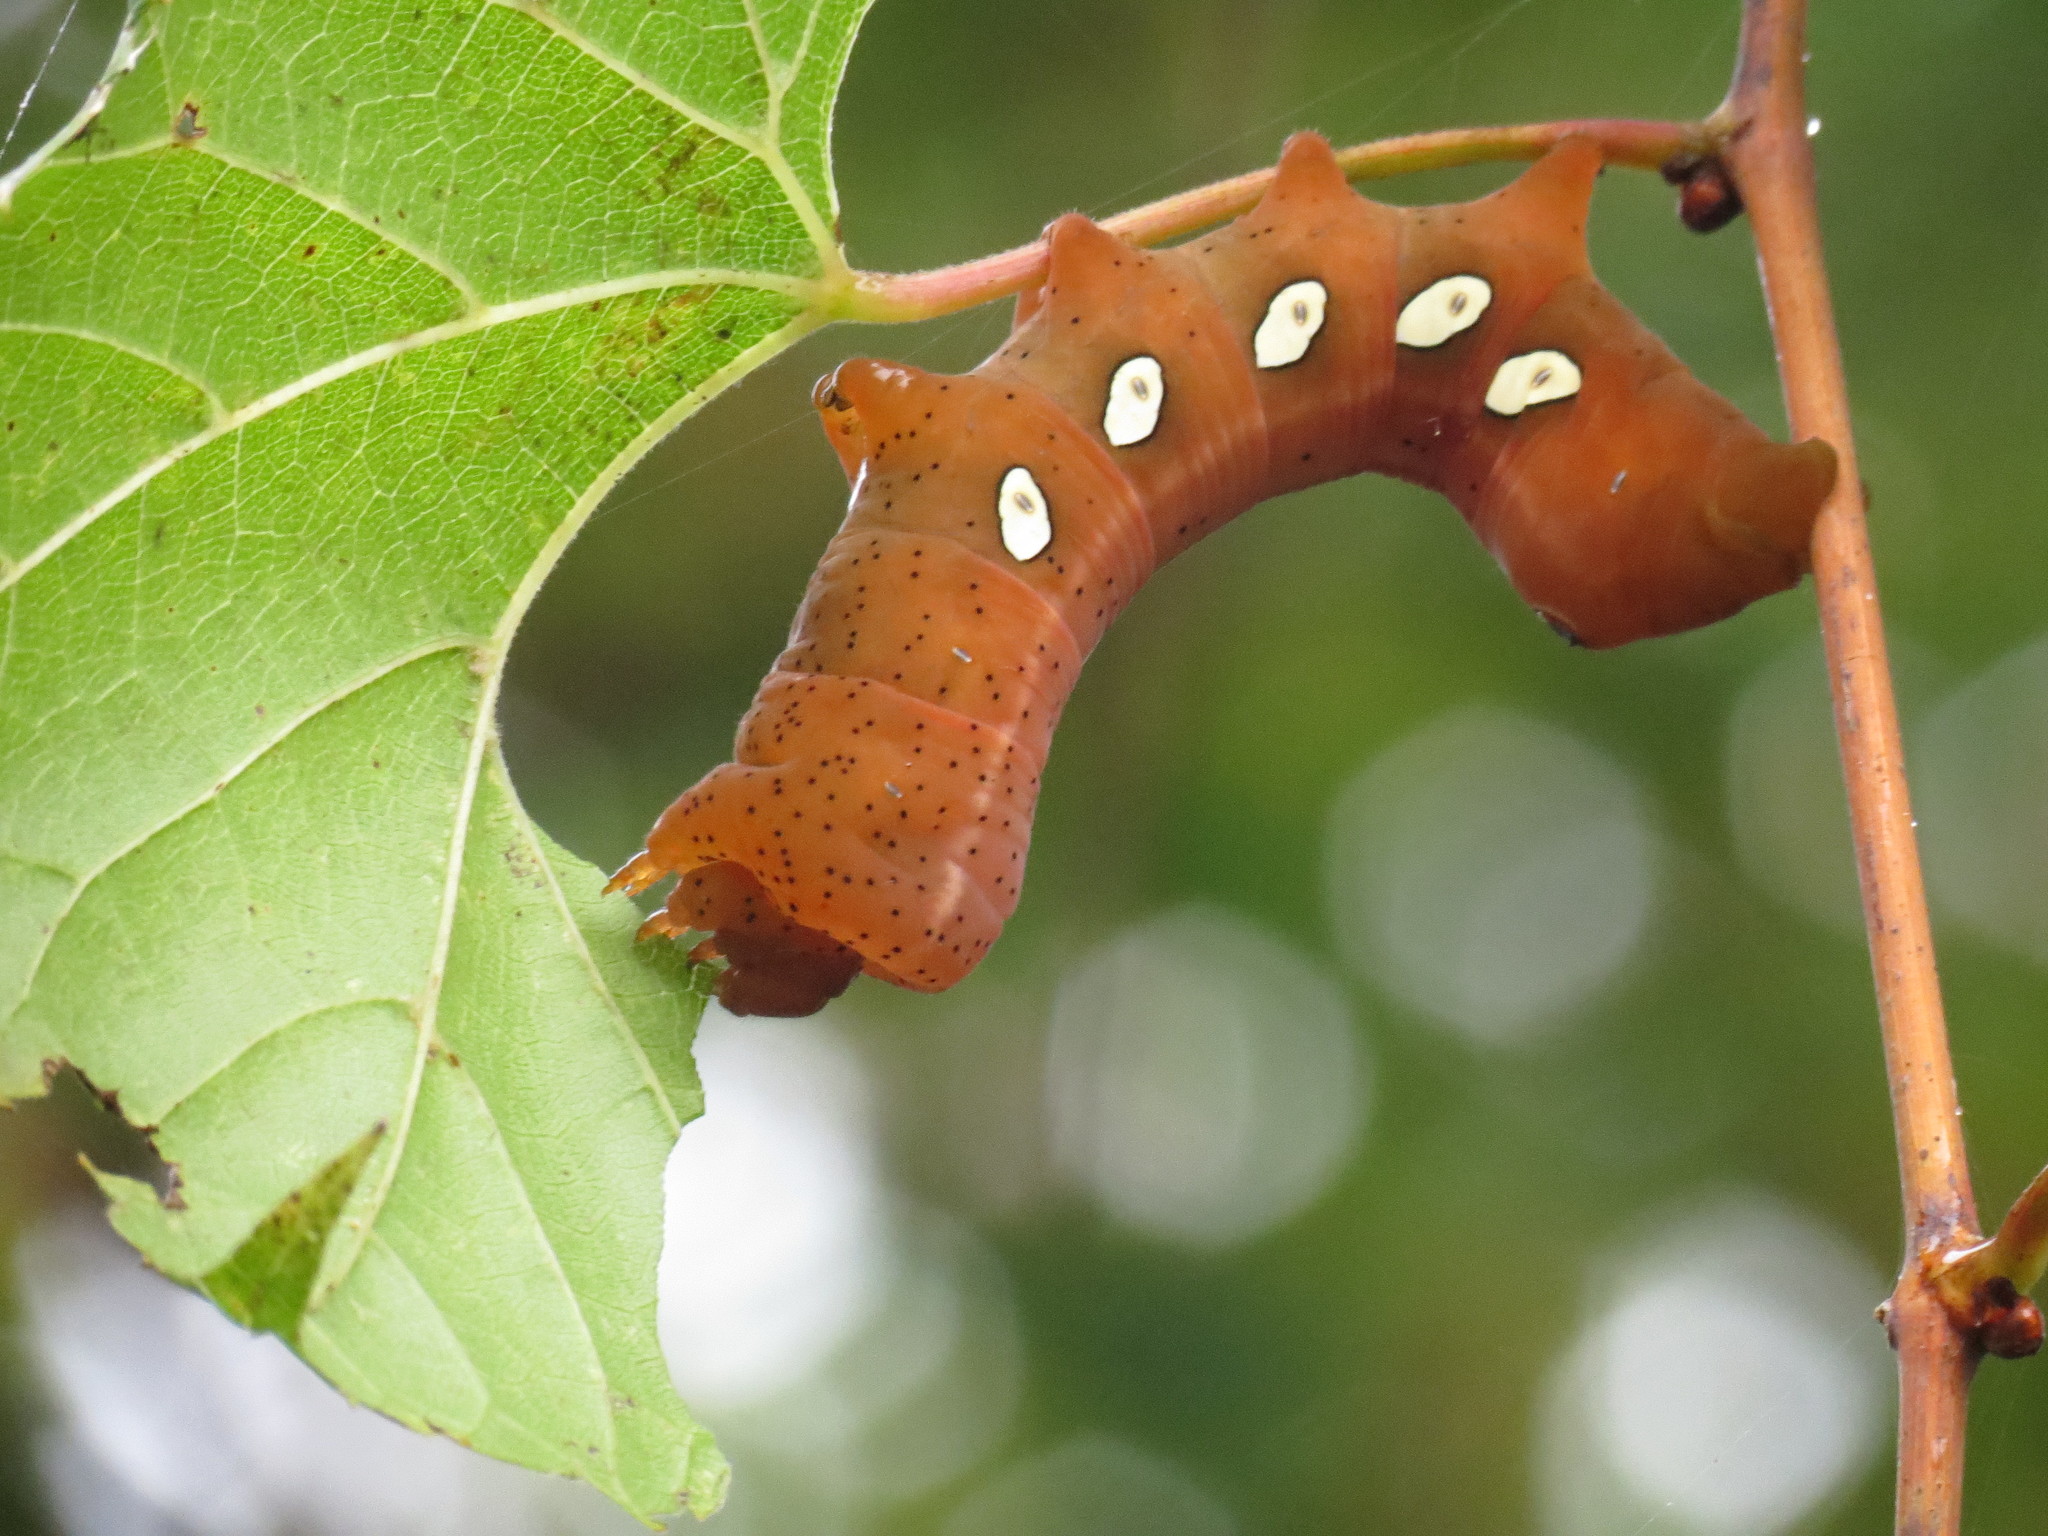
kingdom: Animalia
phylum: Arthropoda
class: Insecta
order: Lepidoptera
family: Sphingidae
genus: Eumorpha
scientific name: Eumorpha pandorus
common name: Pandora sphinx
